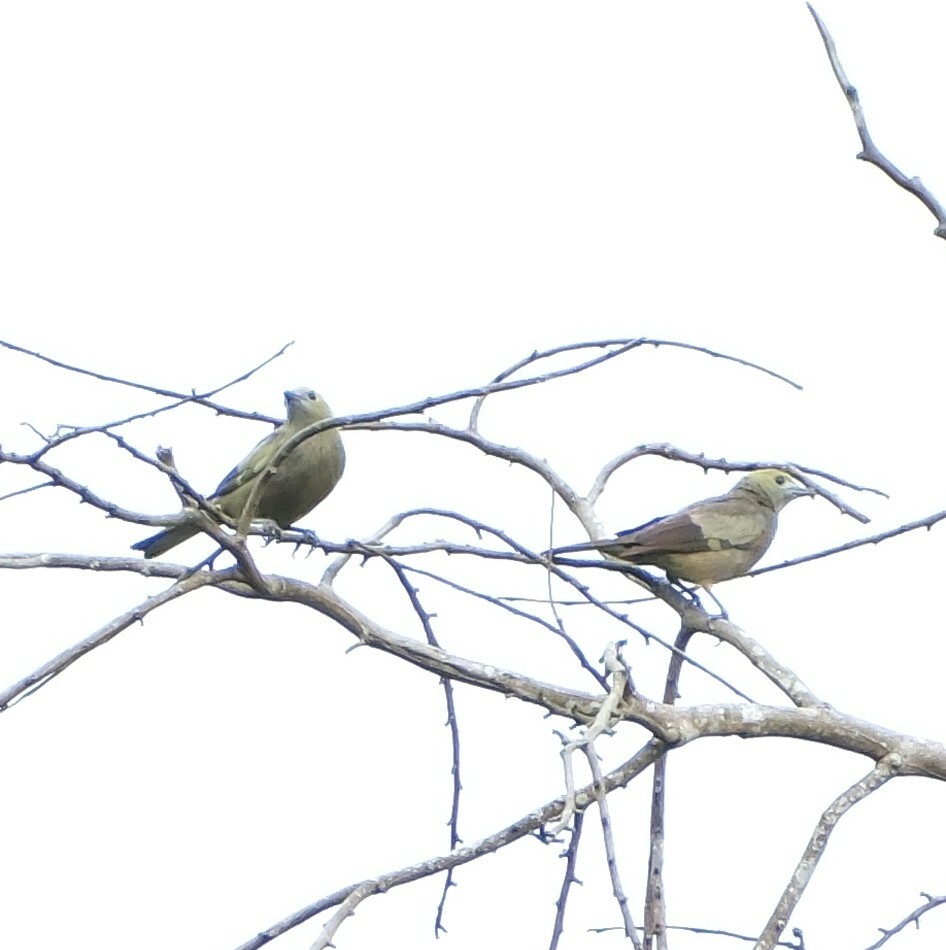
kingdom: Animalia
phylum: Chordata
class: Aves
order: Passeriformes
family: Thraupidae
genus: Thraupis
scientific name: Thraupis palmarum
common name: Palm tanager
